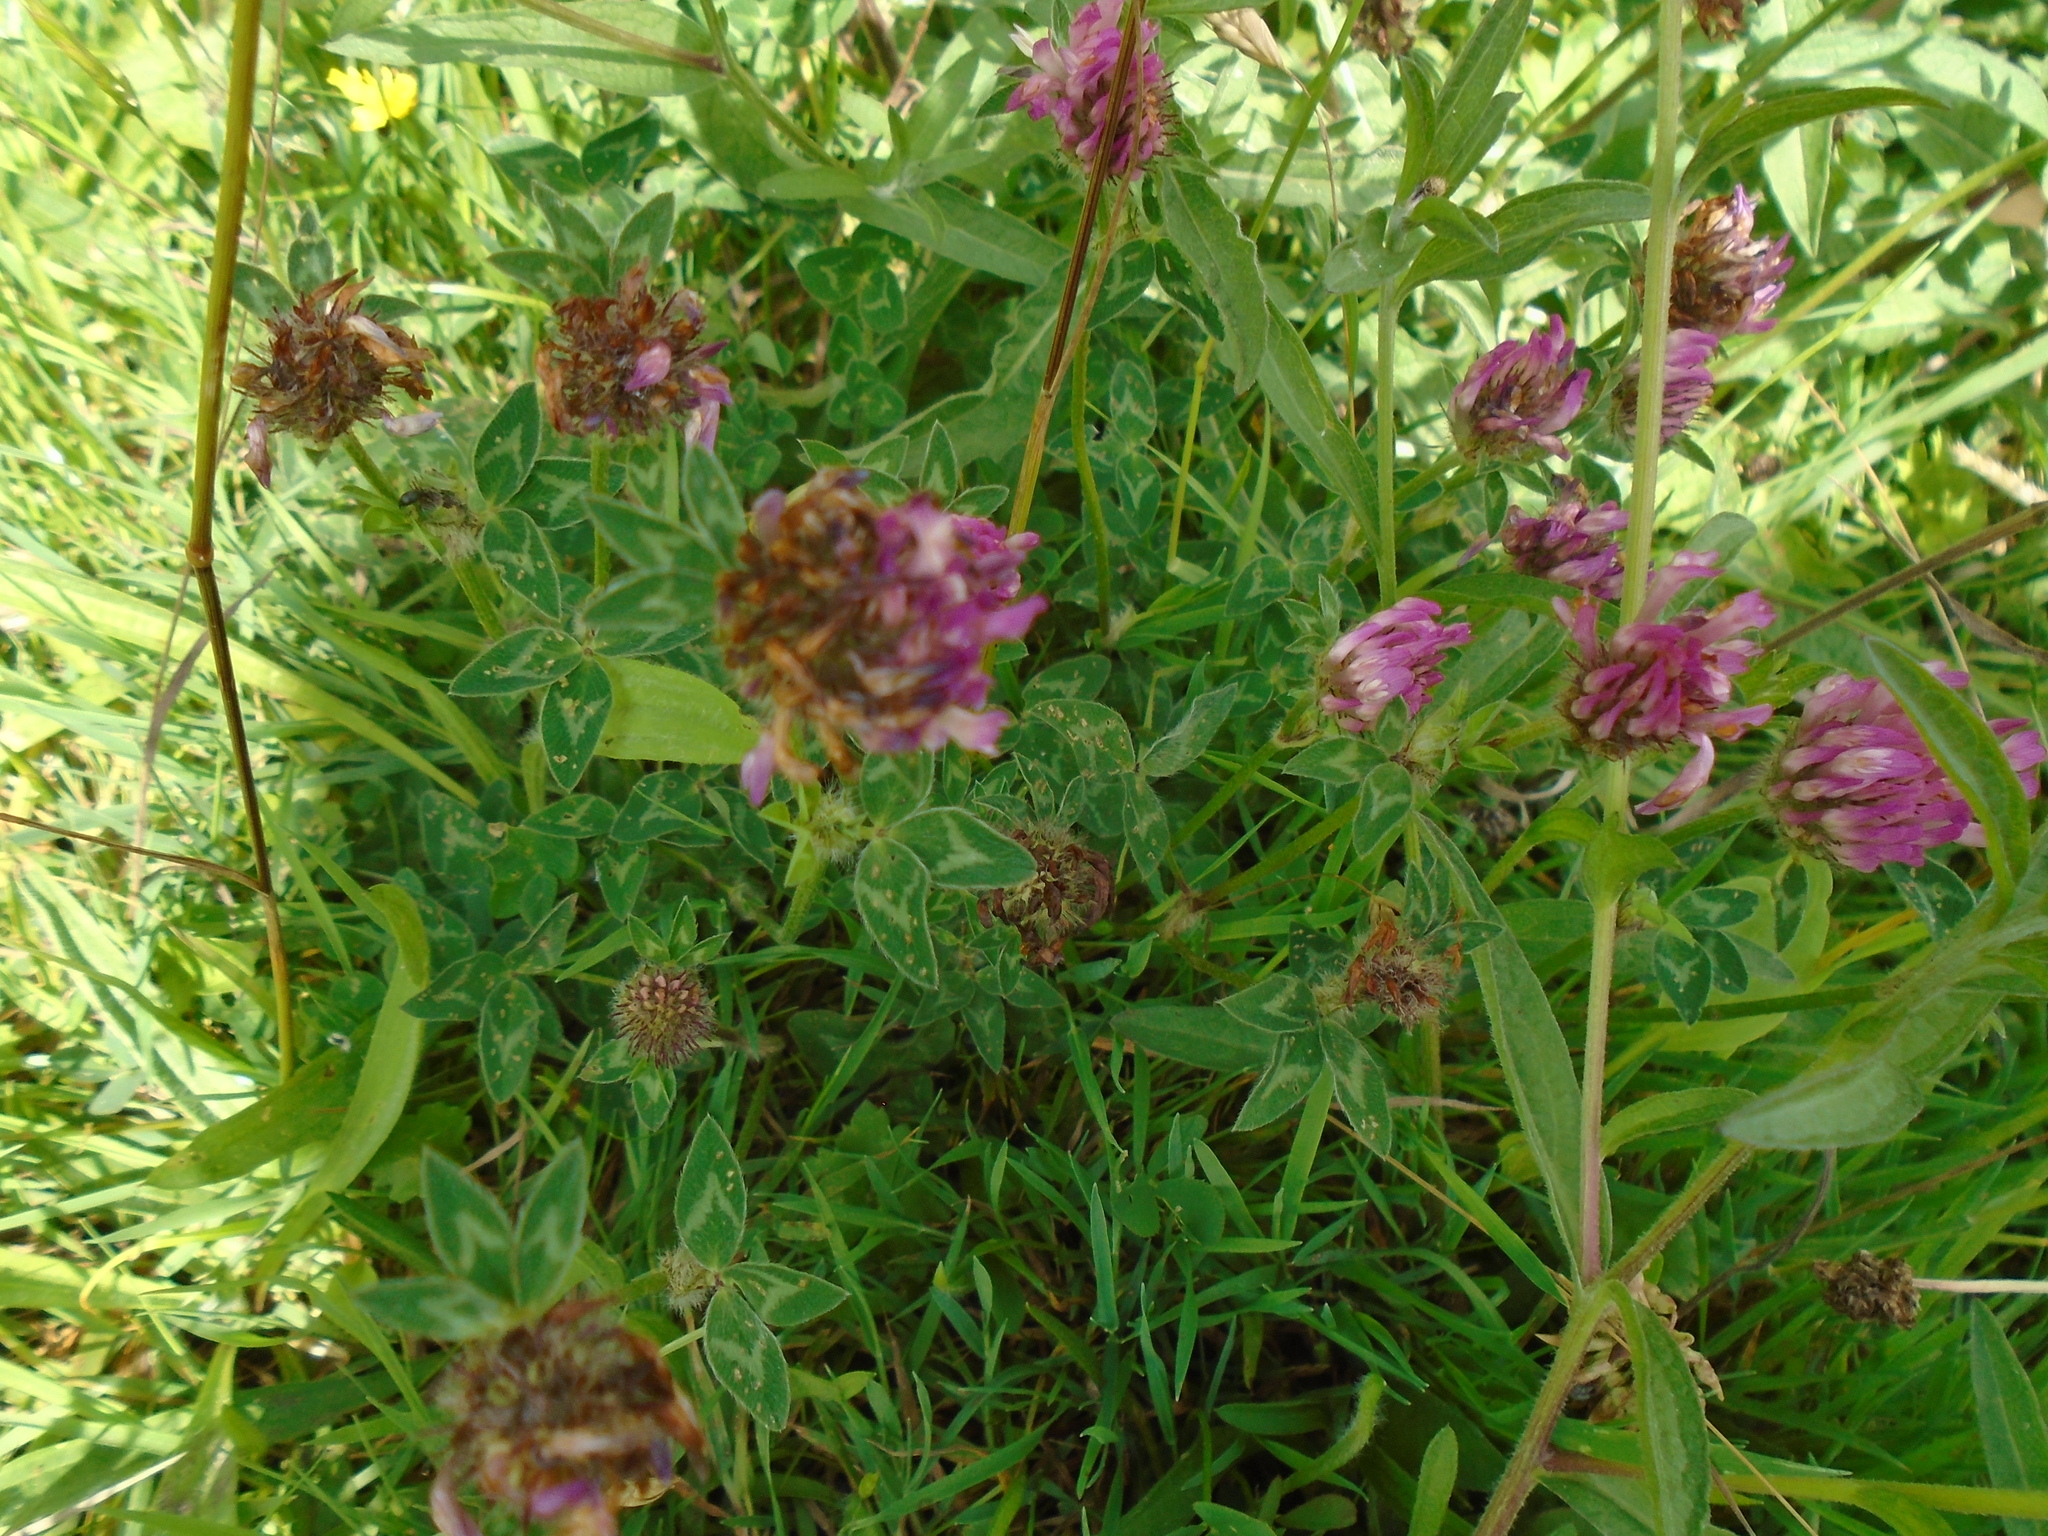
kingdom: Plantae
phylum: Tracheophyta
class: Magnoliopsida
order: Fabales
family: Fabaceae
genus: Trifolium
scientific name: Trifolium pratense
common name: Red clover
